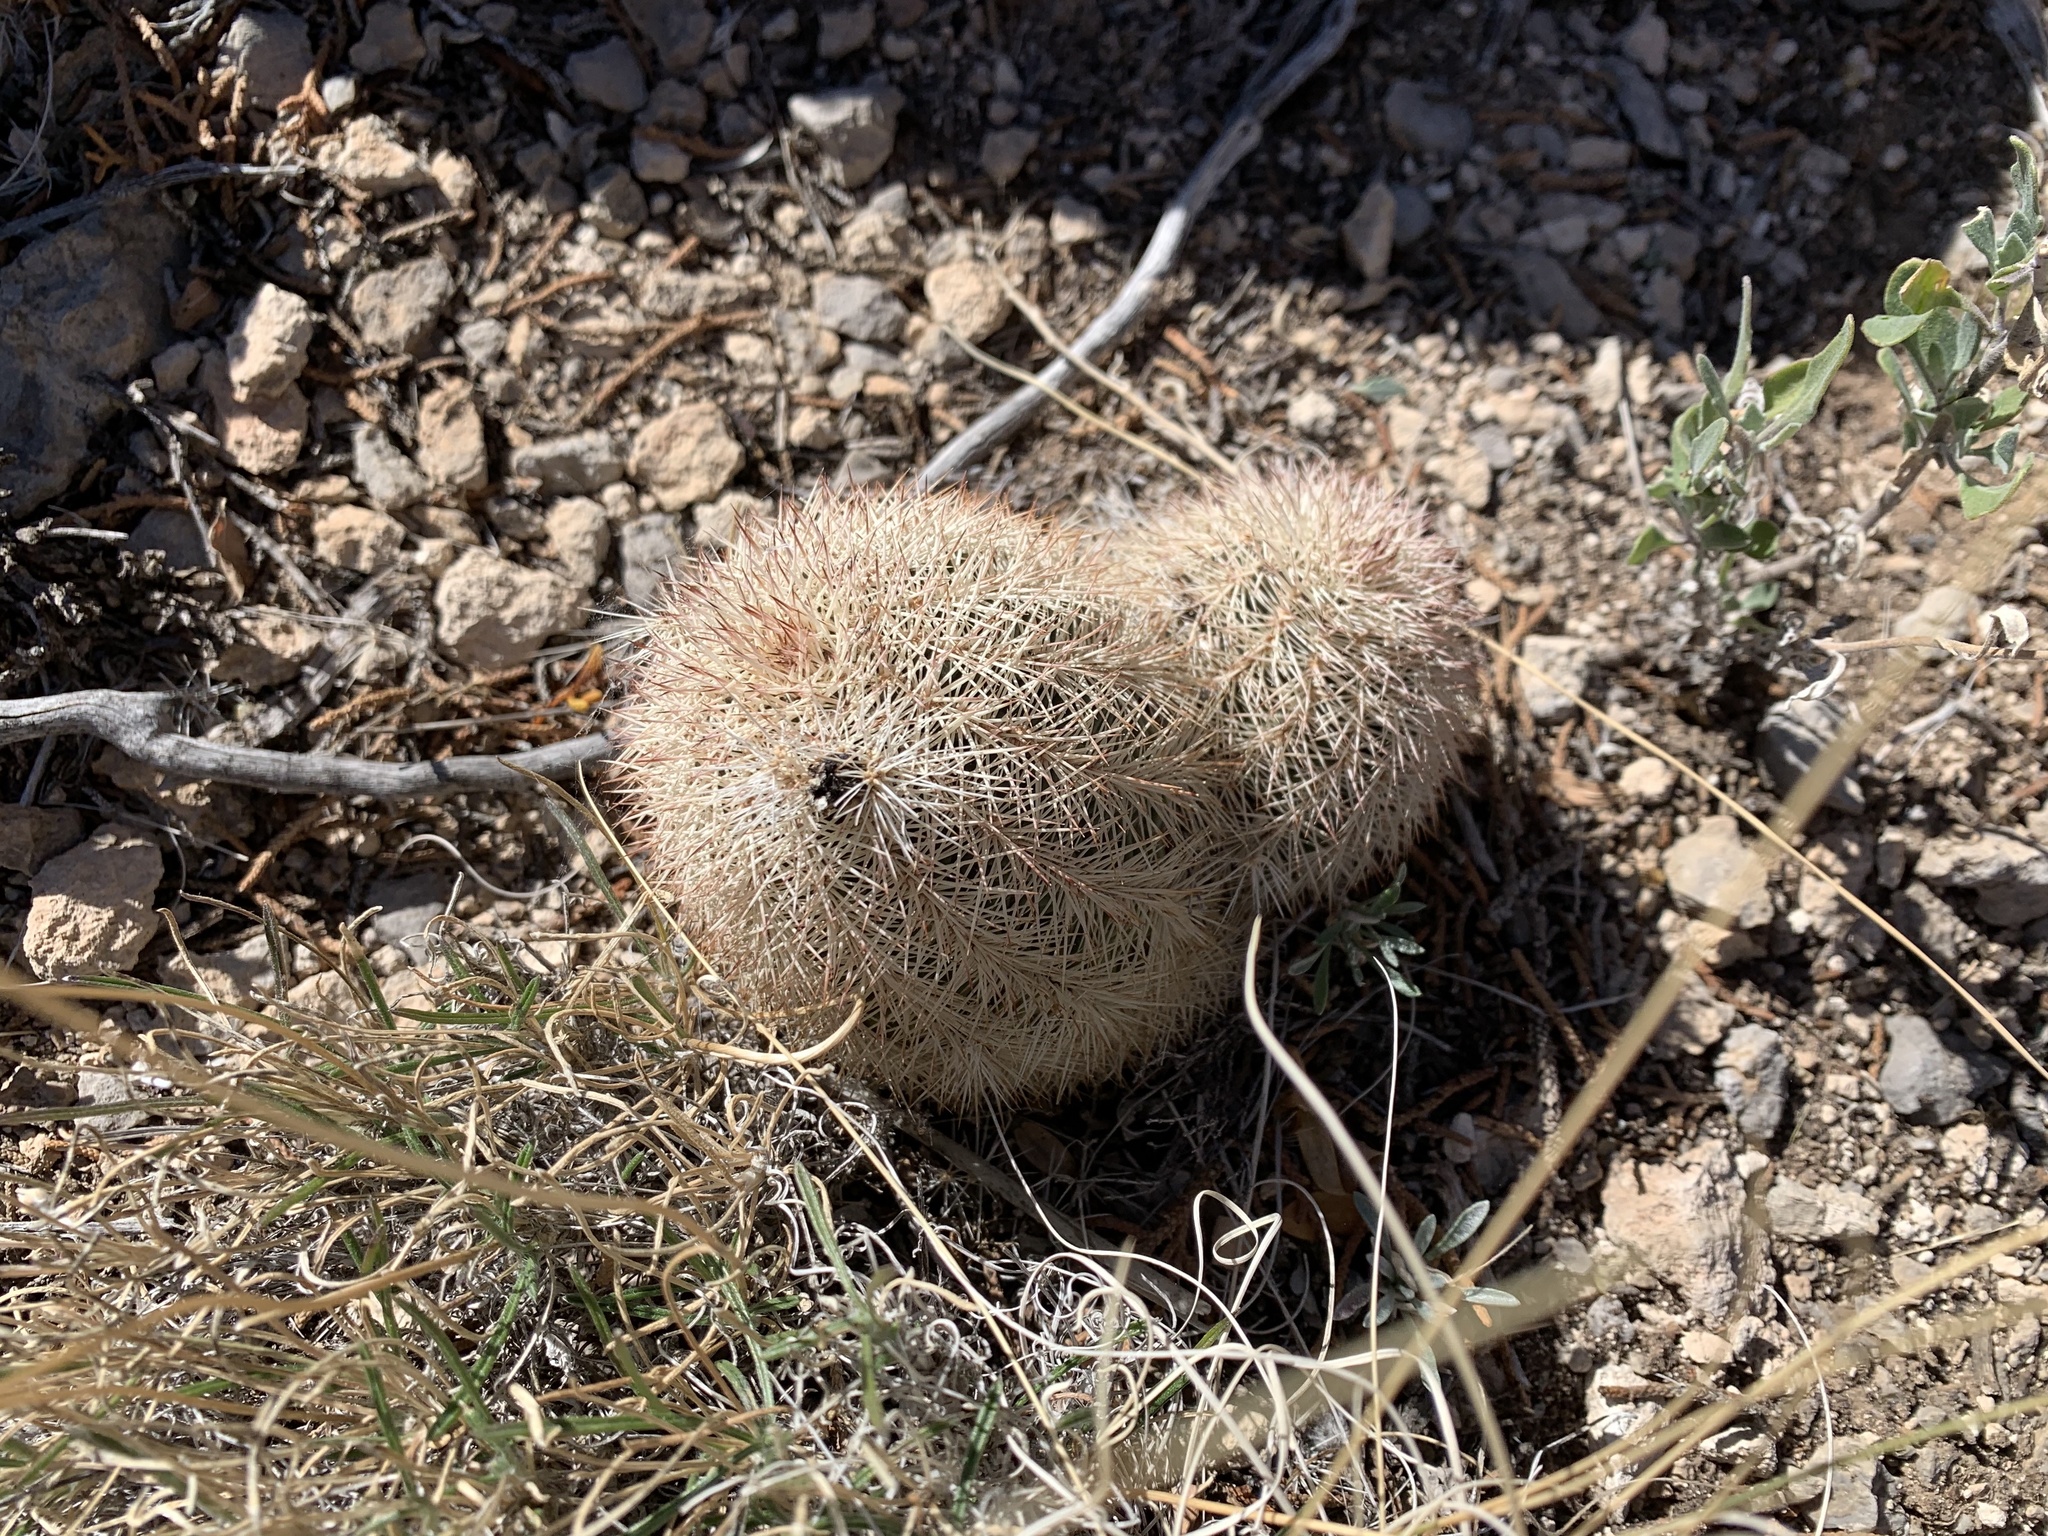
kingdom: Plantae
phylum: Tracheophyta
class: Magnoliopsida
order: Caryophyllales
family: Cactaceae
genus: Echinocereus
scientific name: Echinocereus dasyacanthus
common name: Spiny hedgehog cactus
